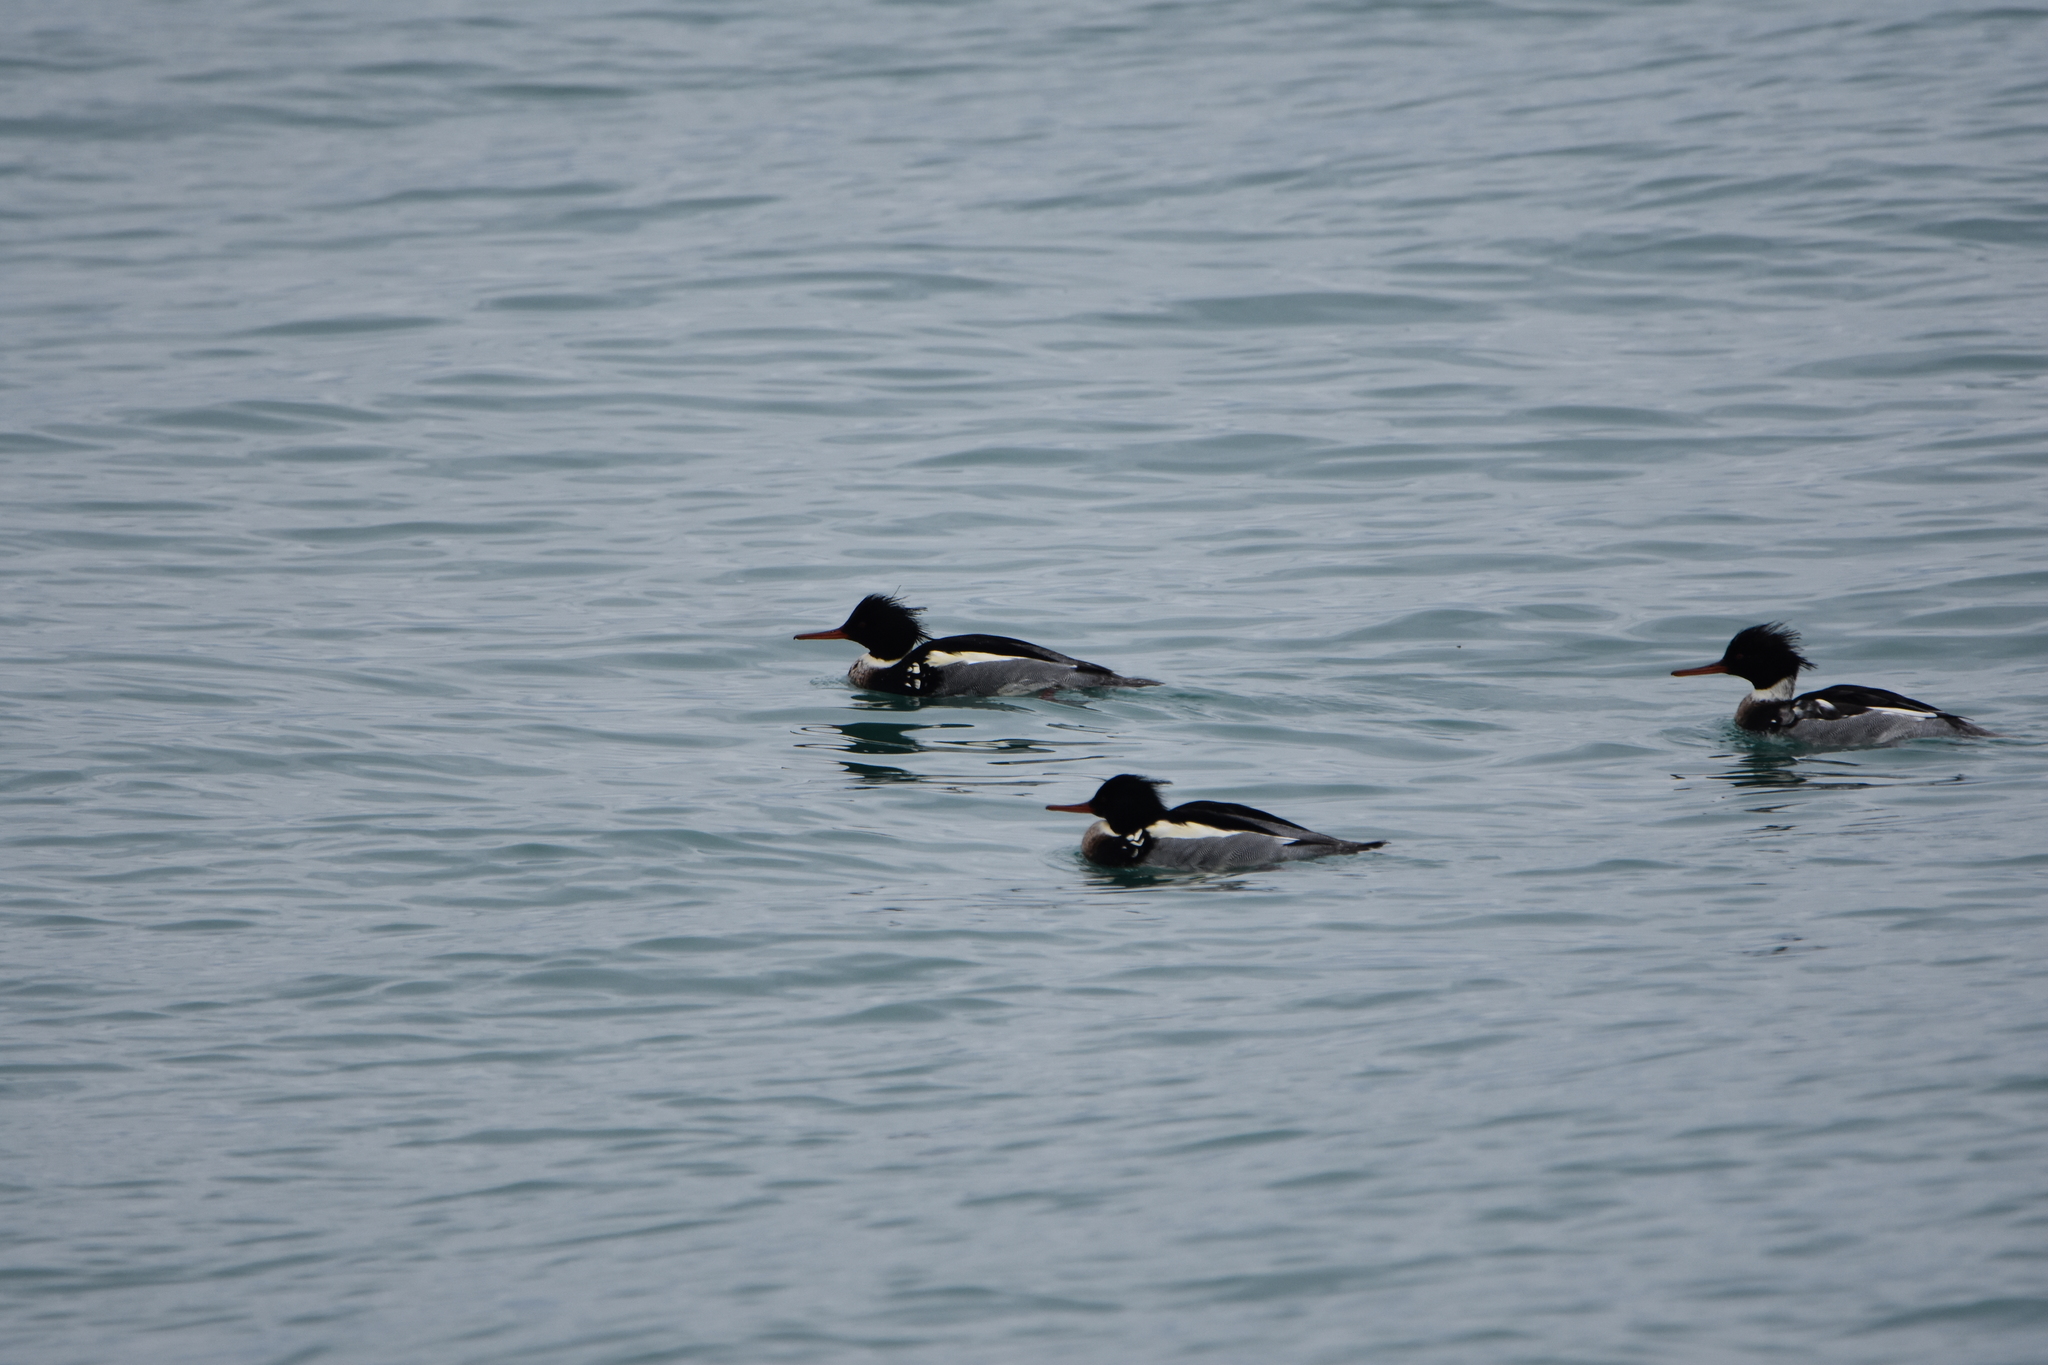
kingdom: Animalia
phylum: Chordata
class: Aves
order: Anseriformes
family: Anatidae
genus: Mergus
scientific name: Mergus serrator
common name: Red-breasted merganser
